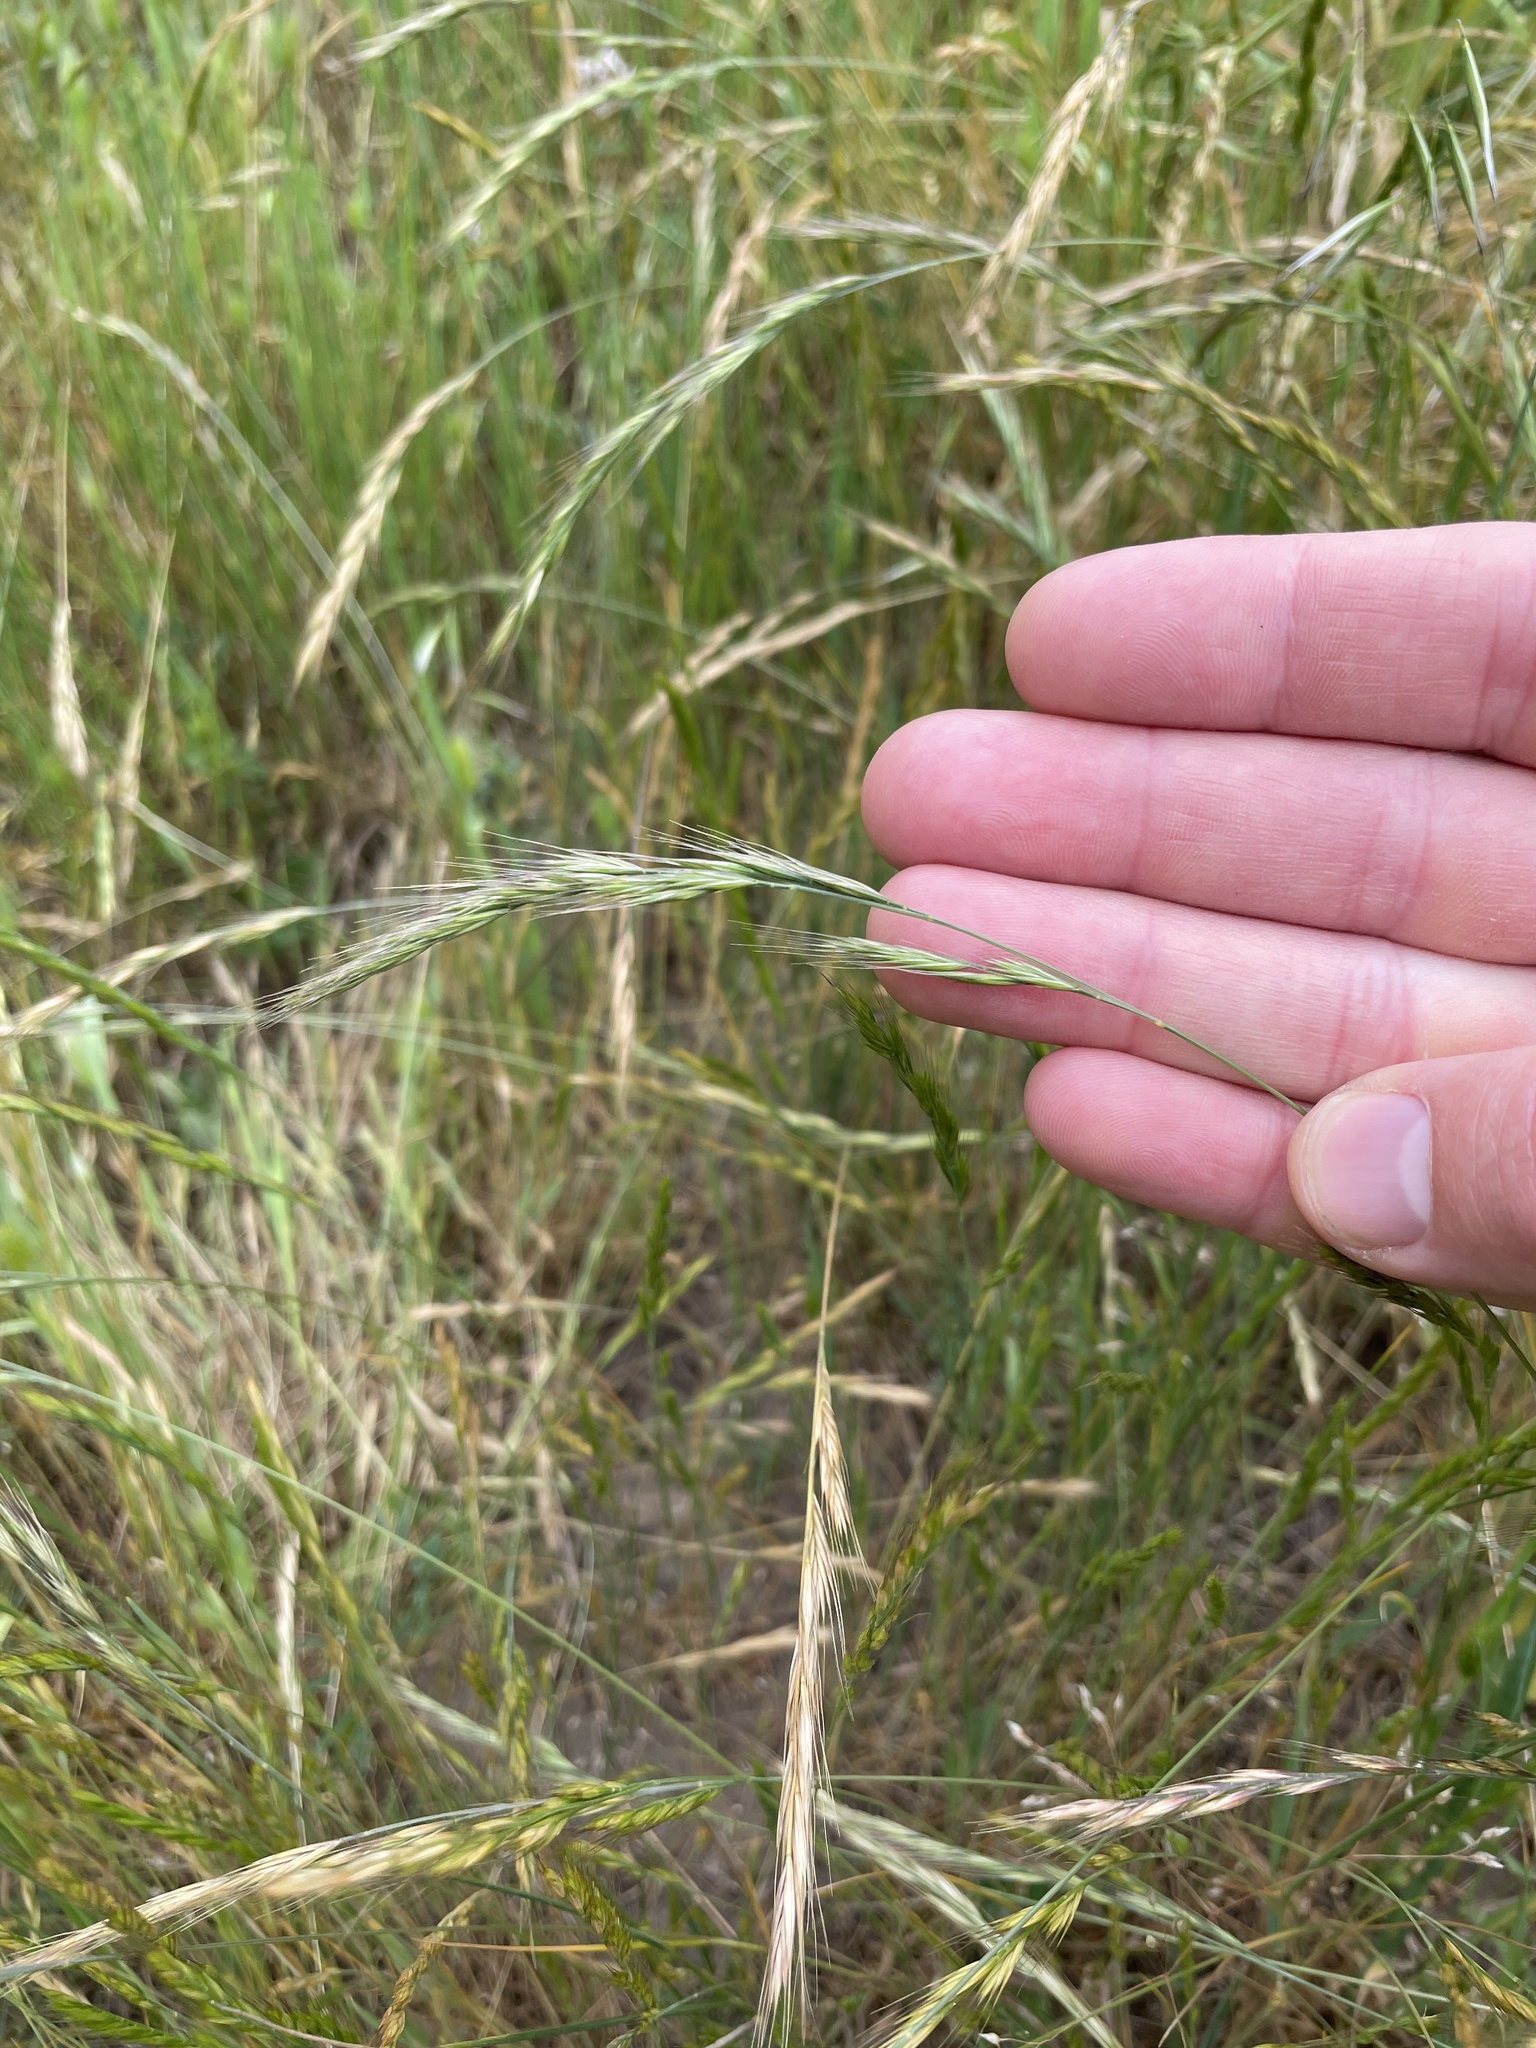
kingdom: Plantae
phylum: Tracheophyta
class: Liliopsida
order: Poales
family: Poaceae
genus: Festuca
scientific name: Festuca bromoides
